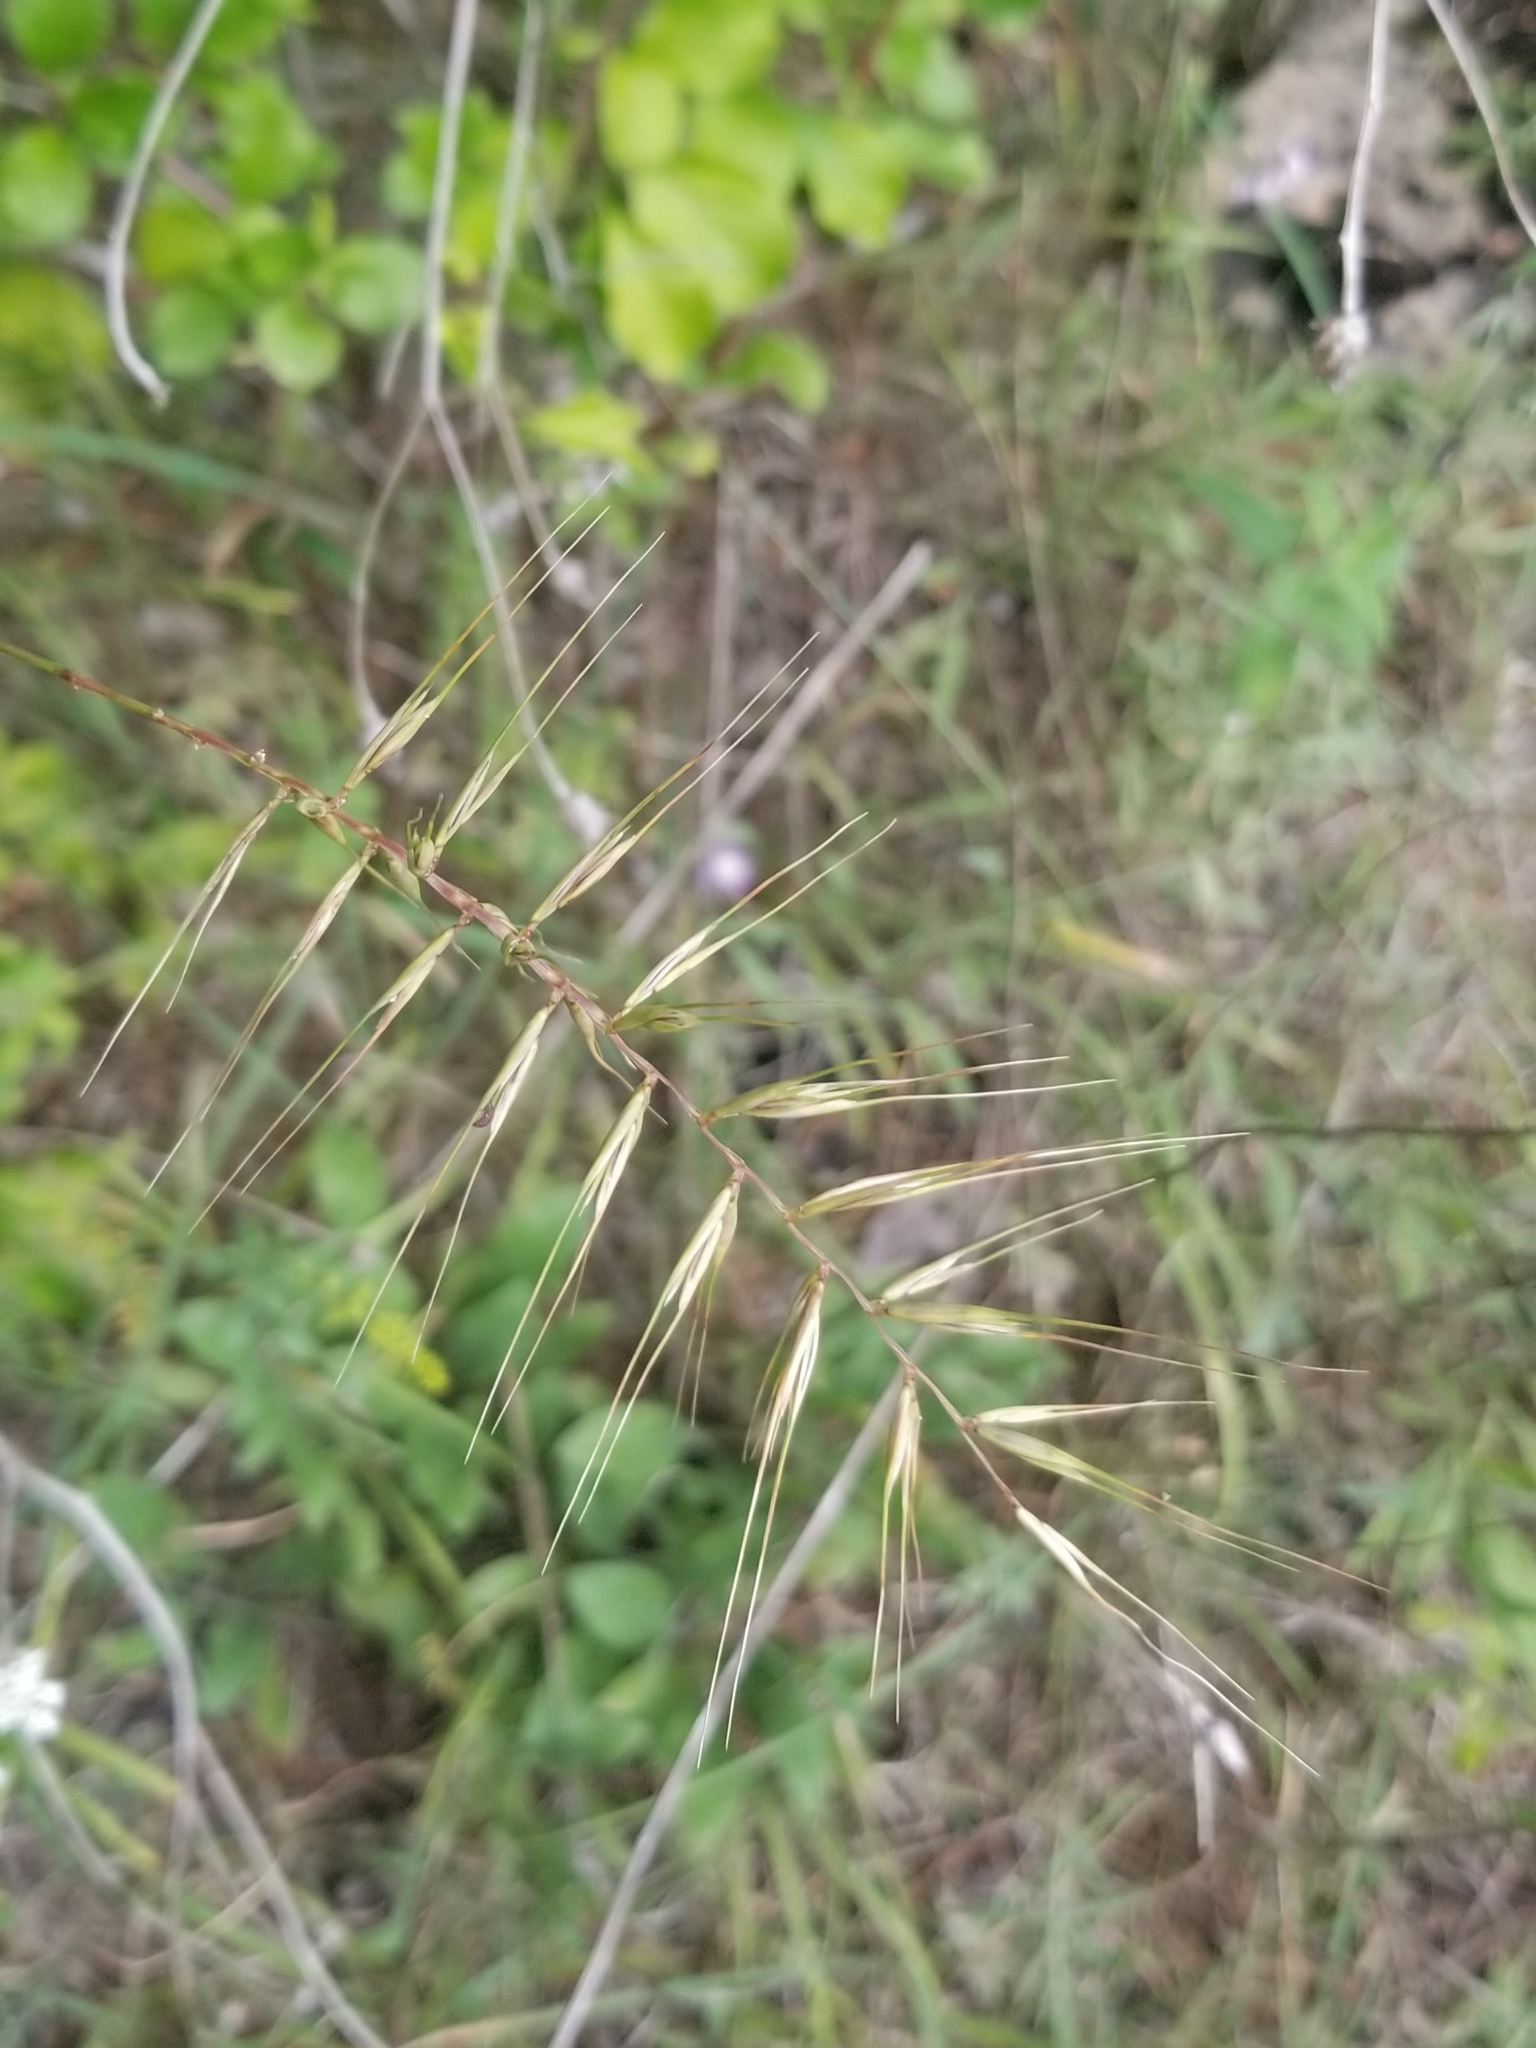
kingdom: Plantae
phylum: Tracheophyta
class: Liliopsida
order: Poales
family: Poaceae
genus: Elymus
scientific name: Elymus hystrix
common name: Bottlebrush grass
